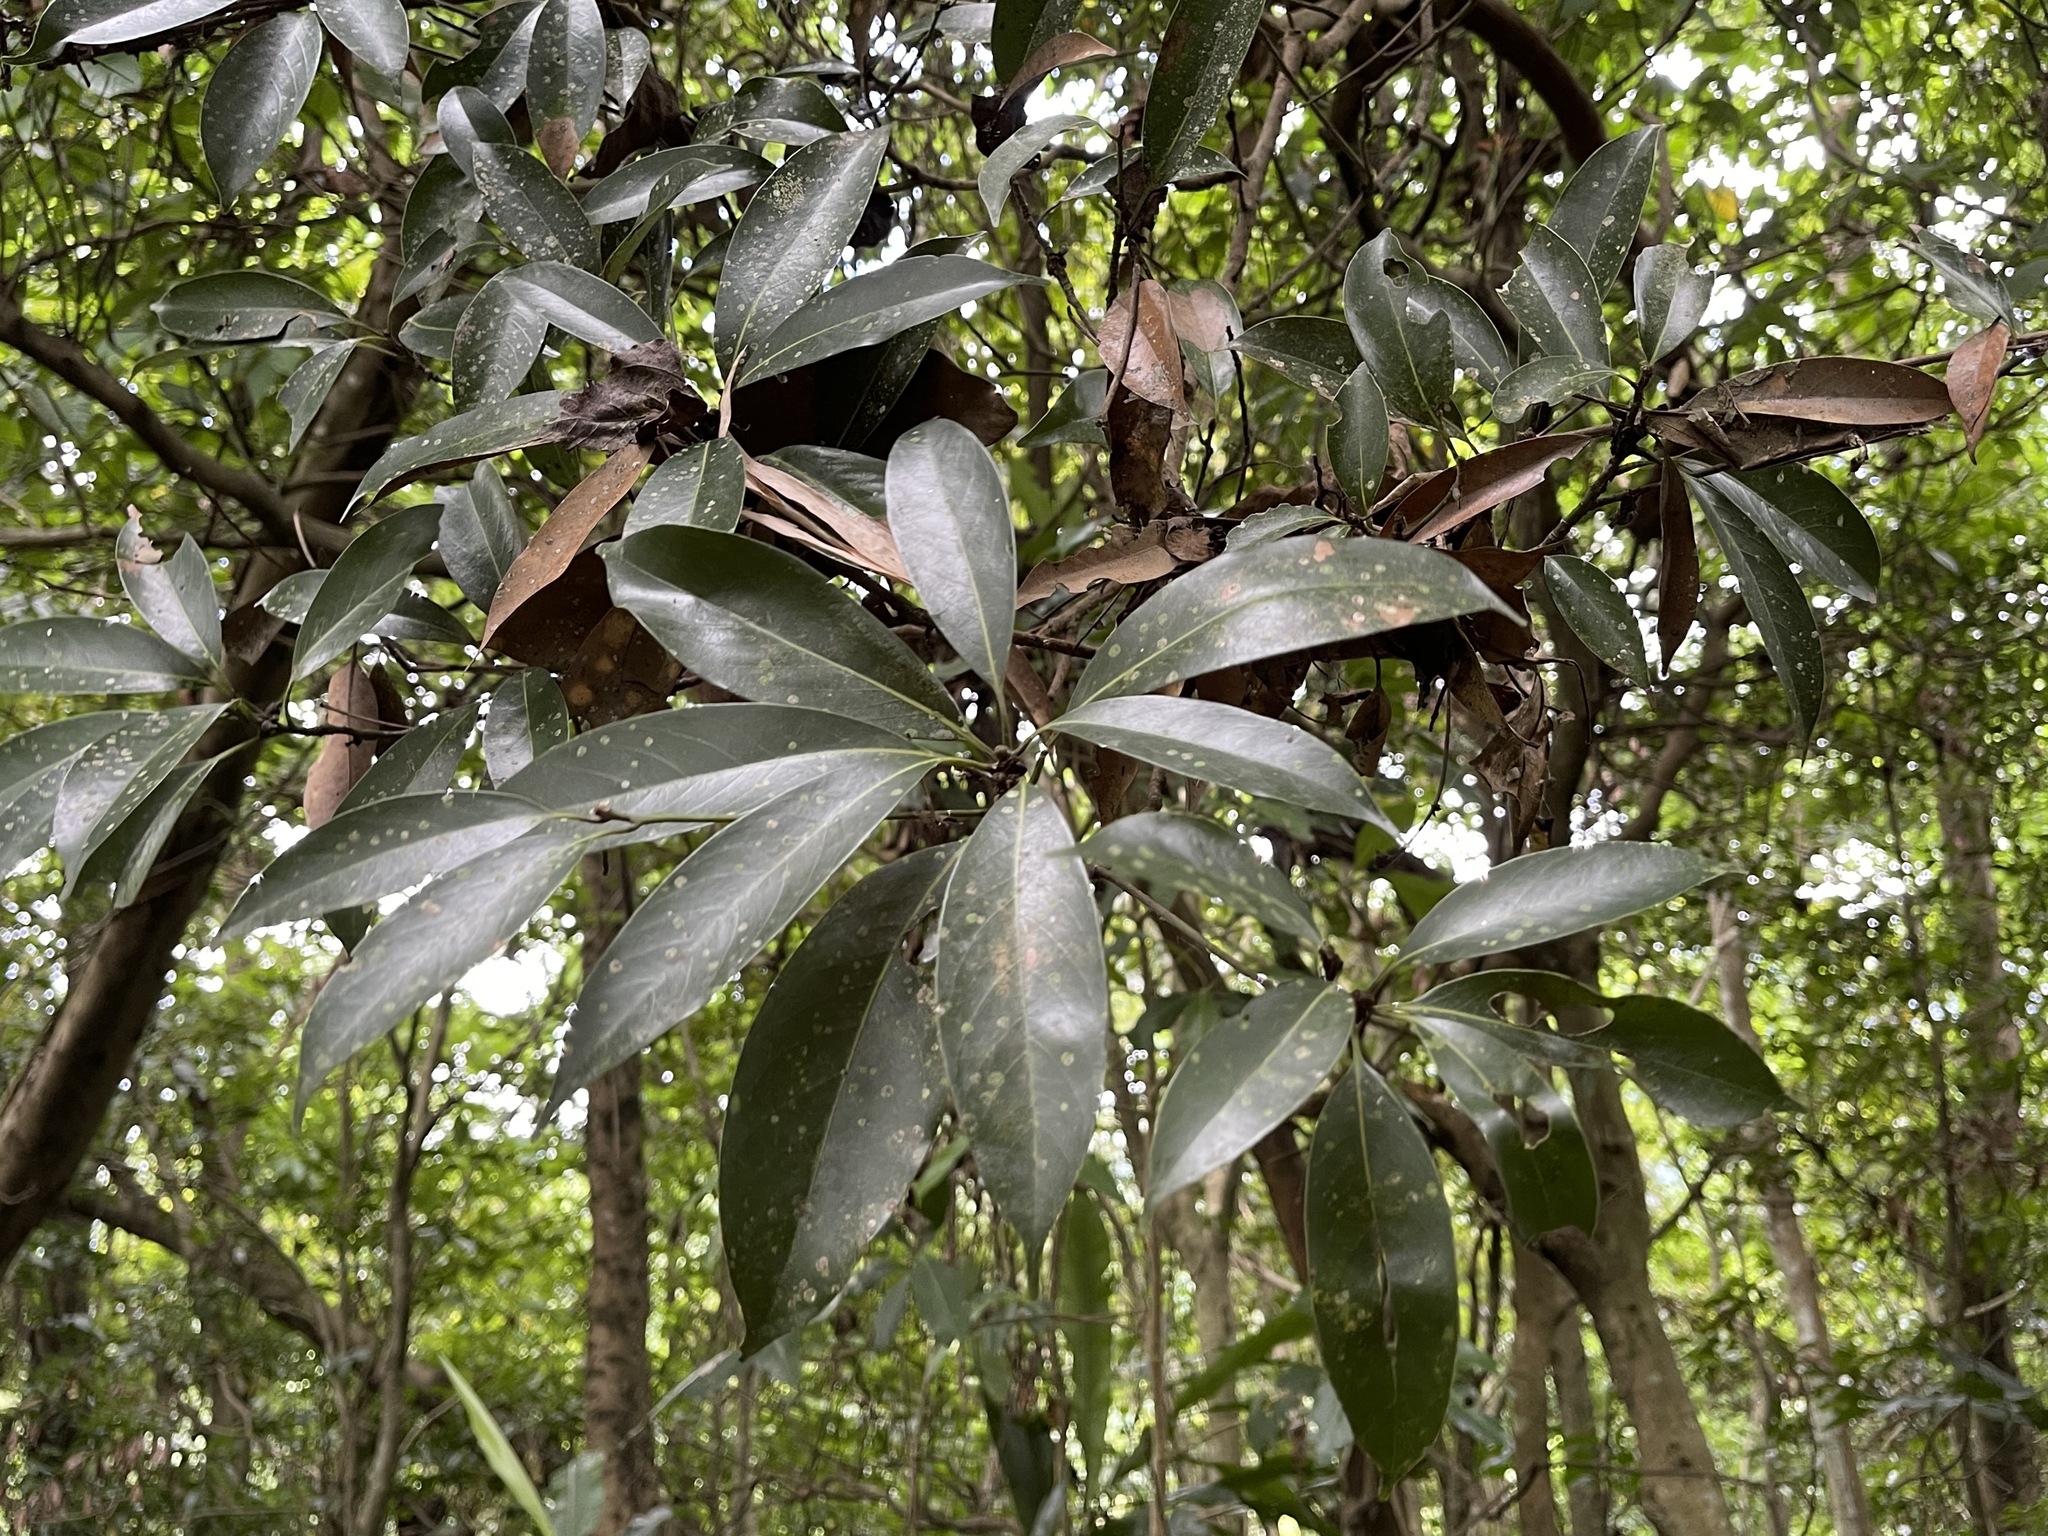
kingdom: Plantae
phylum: Tracheophyta
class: Magnoliopsida
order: Laurales
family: Lauraceae
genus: Machilus
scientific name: Machilus thunbergii
